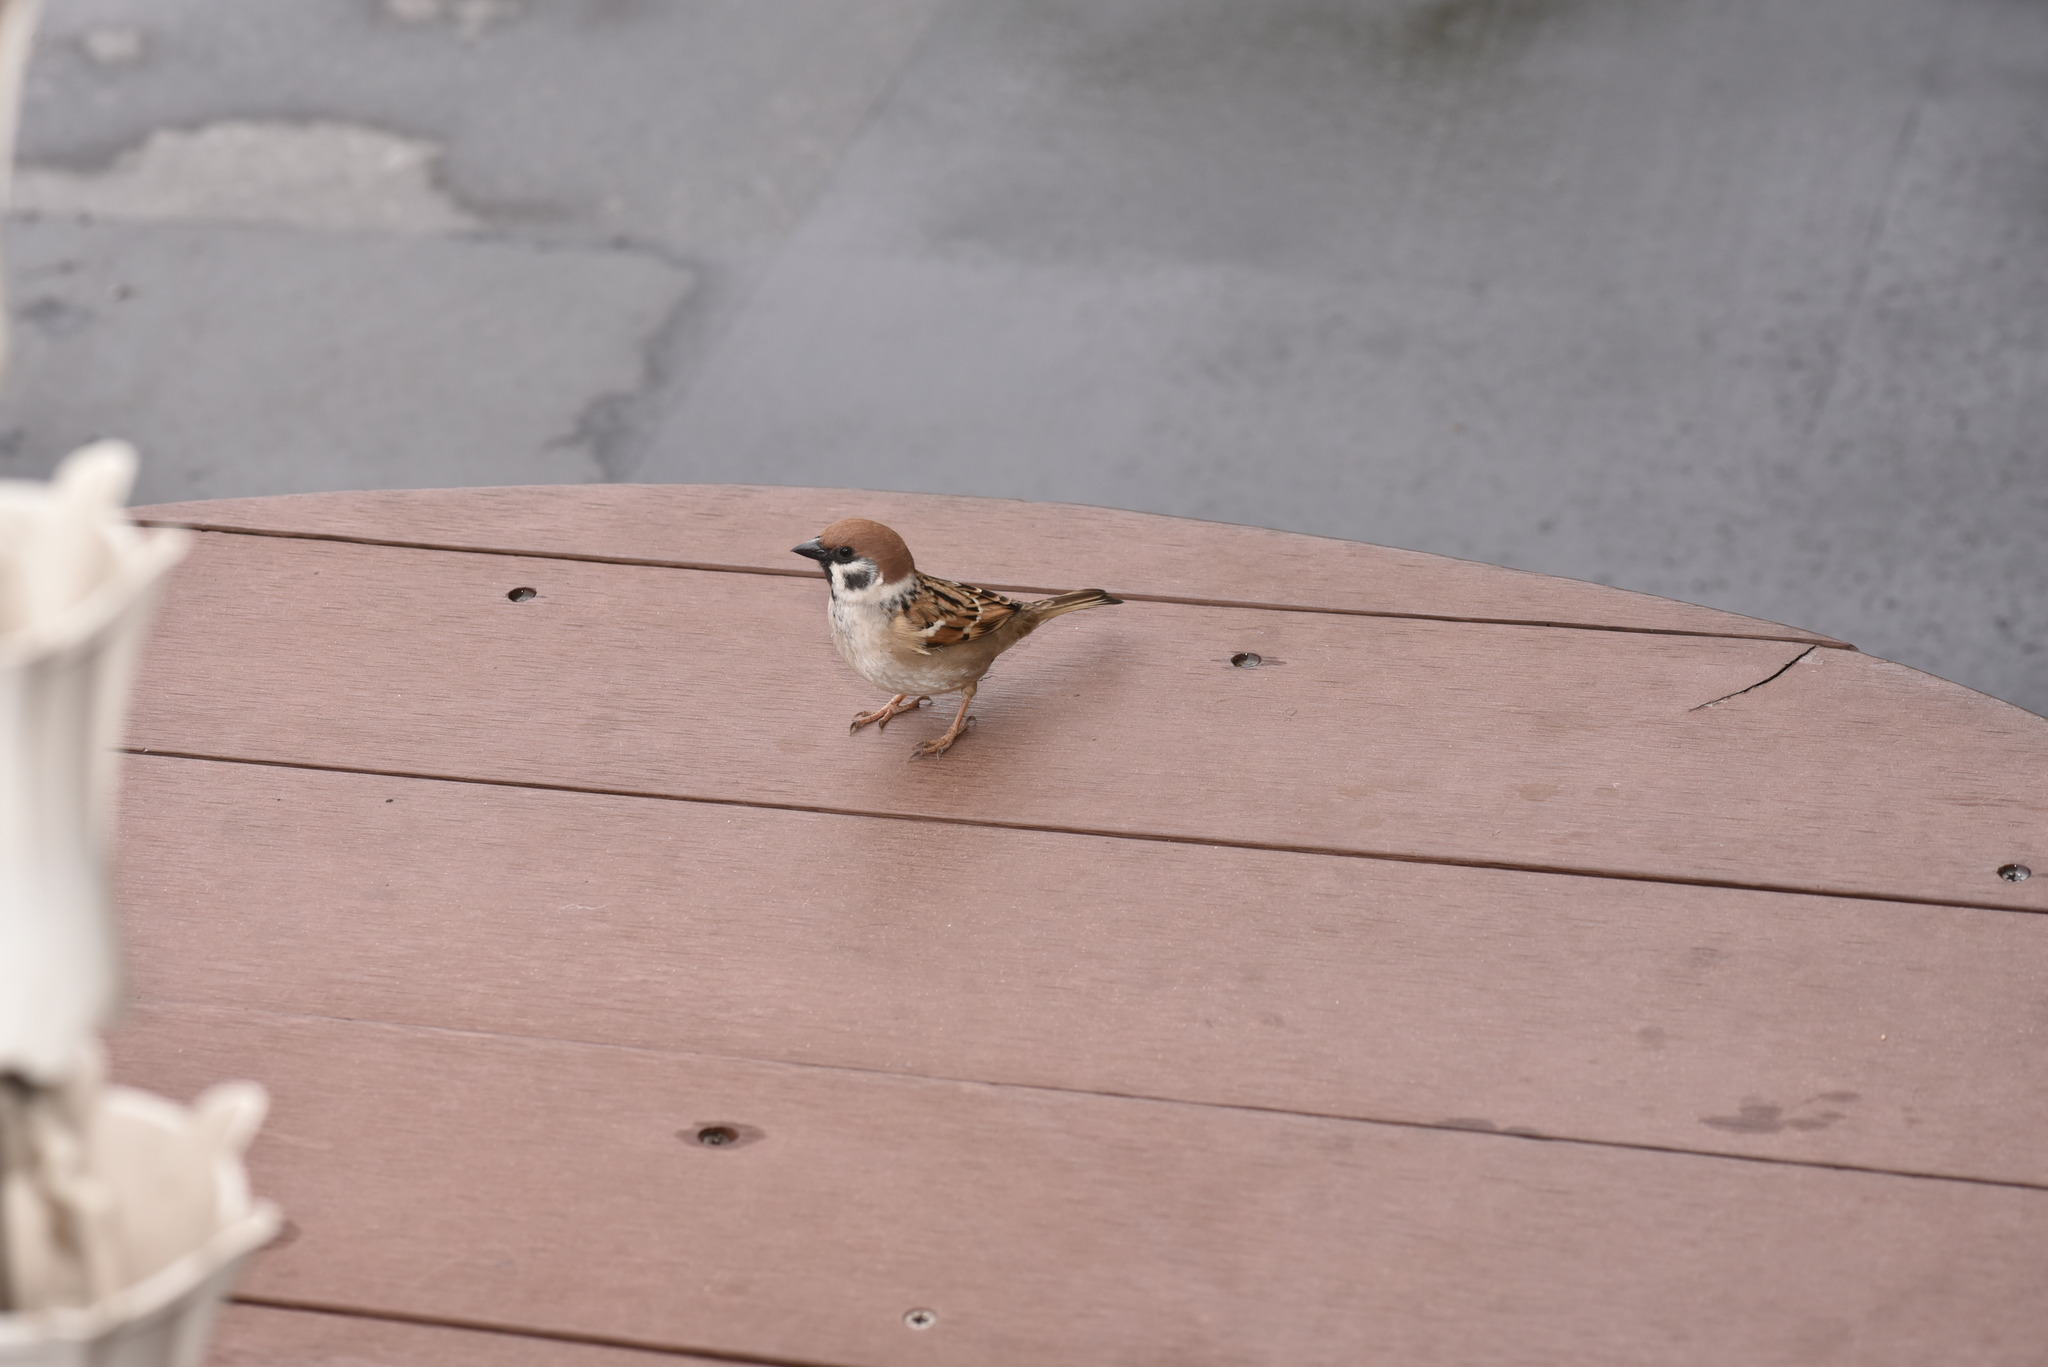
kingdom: Animalia
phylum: Chordata
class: Aves
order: Passeriformes
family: Passeridae
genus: Passer
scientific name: Passer montanus
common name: Eurasian tree sparrow
